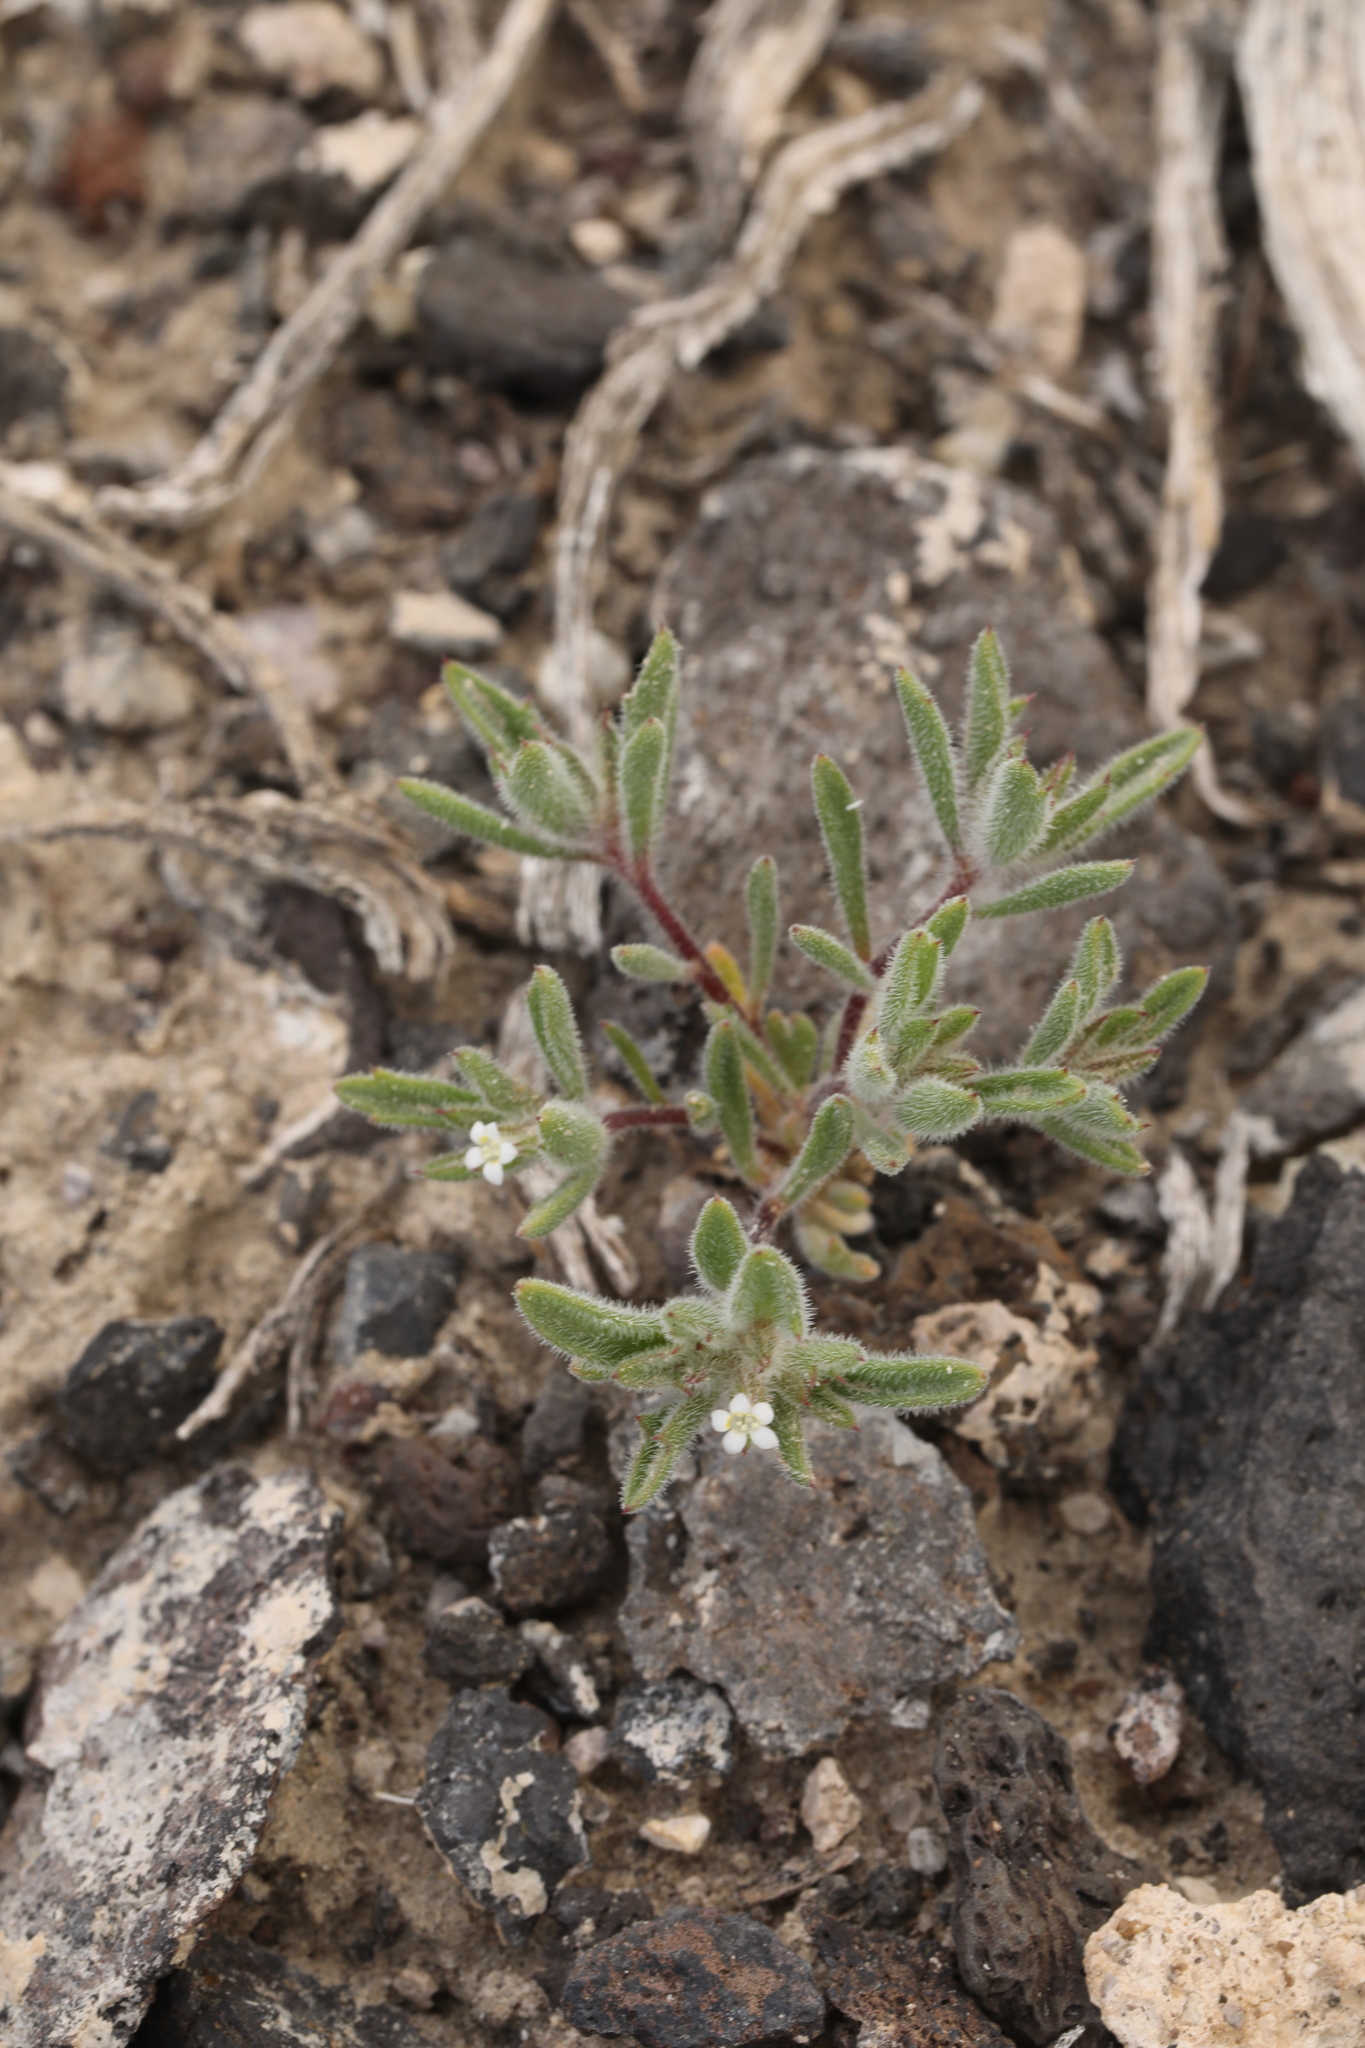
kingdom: Plantae
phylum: Tracheophyta
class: Magnoliopsida
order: Ericales
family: Polemoniaceae
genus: Loeseliastrum
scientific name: Loeseliastrum depressum
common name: Depressed ipomopsis
